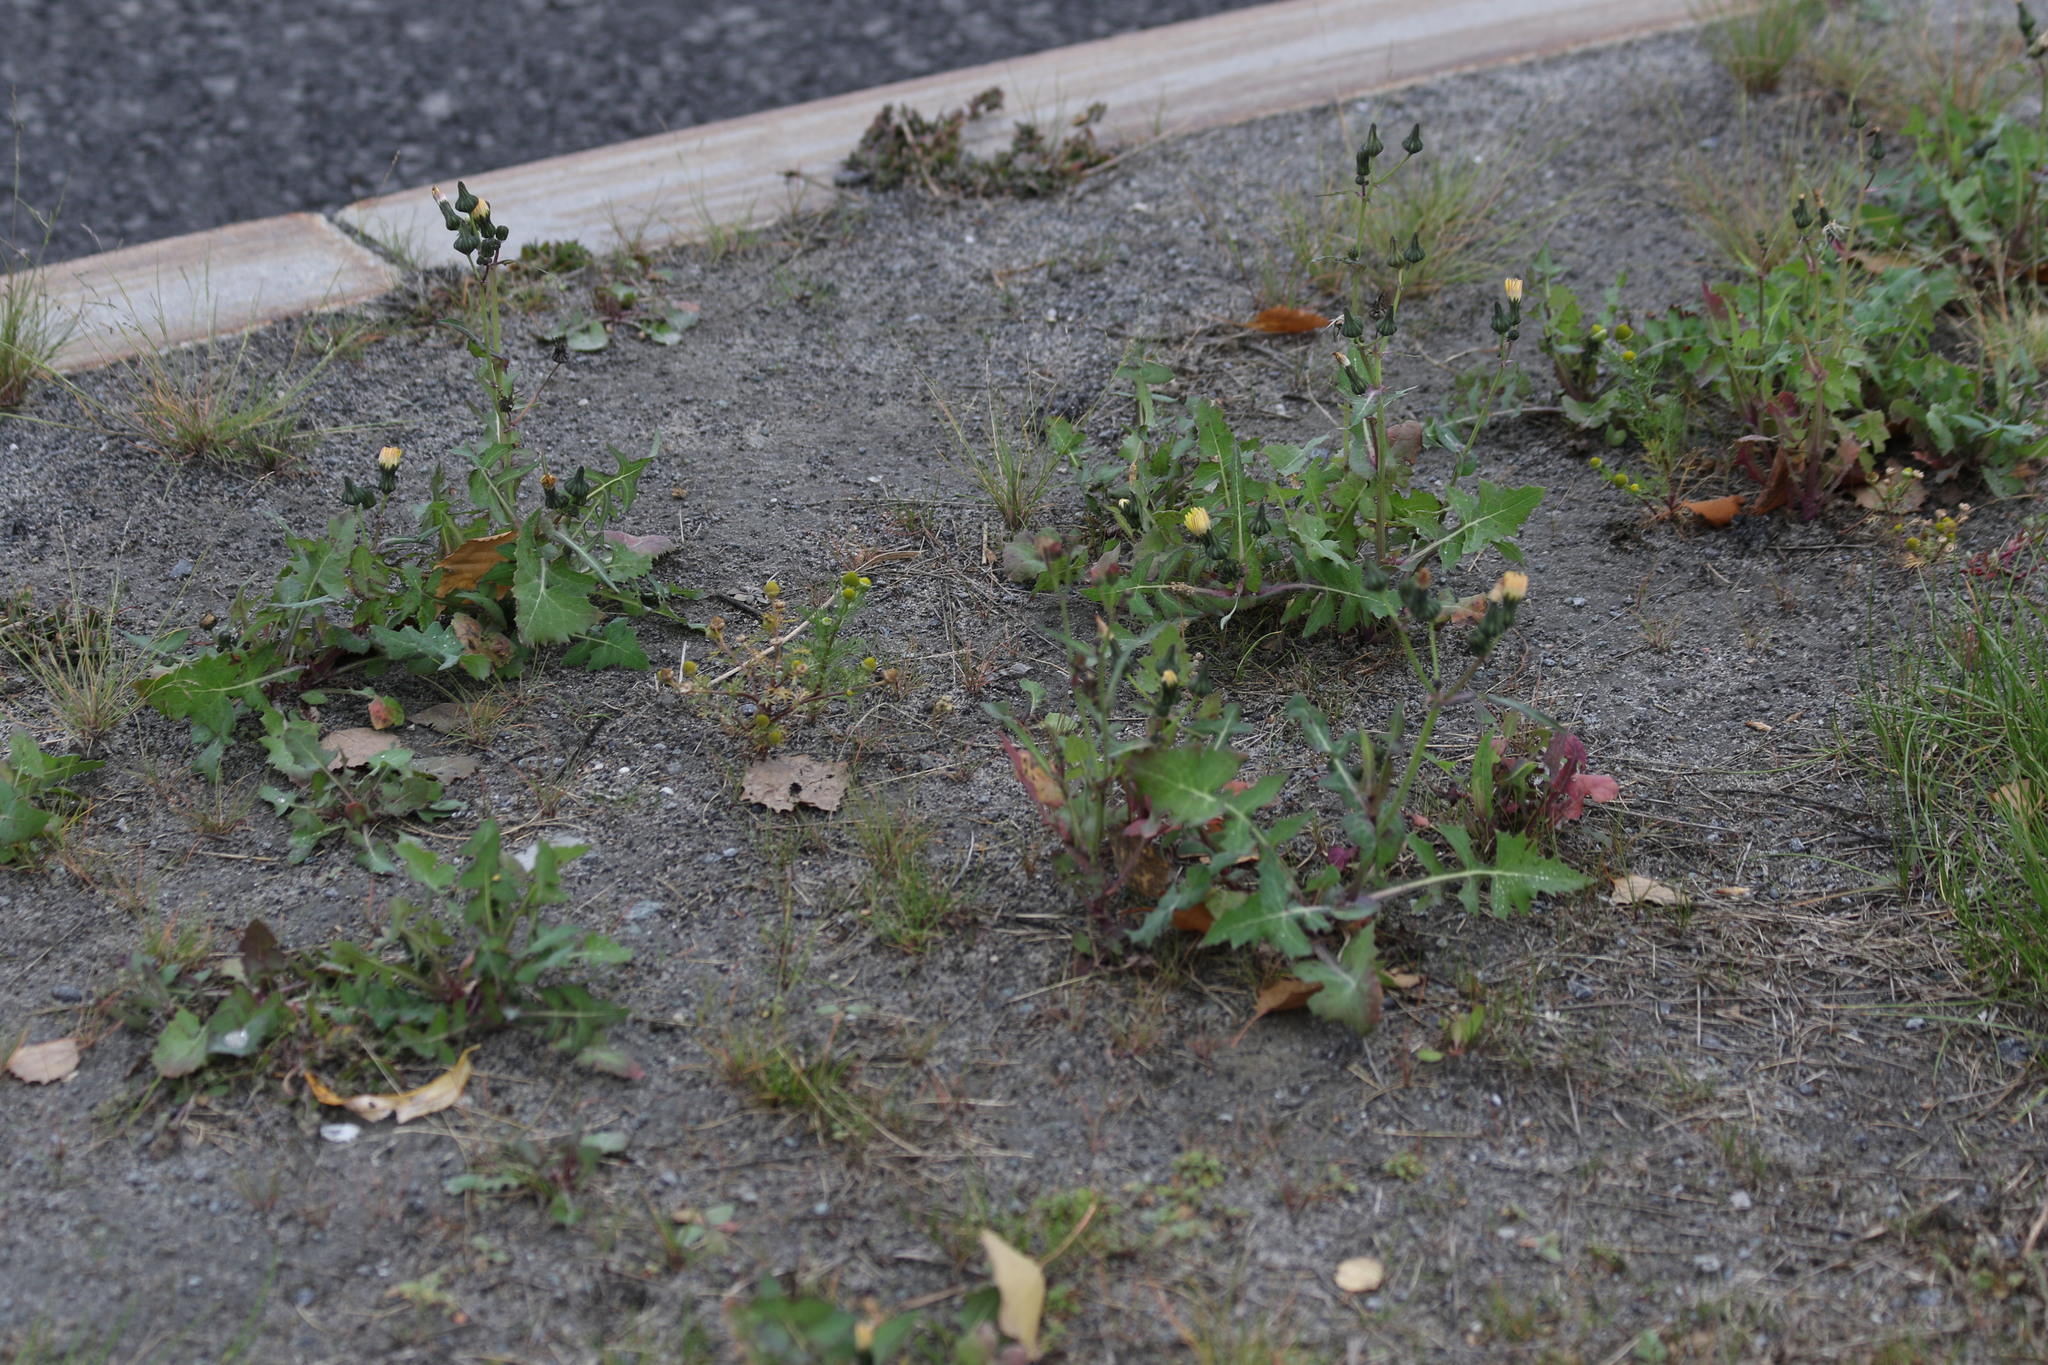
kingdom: Plantae
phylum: Tracheophyta
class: Magnoliopsida
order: Asterales
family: Asteraceae
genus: Sonchus
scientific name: Sonchus oleraceus
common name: Common sowthistle
